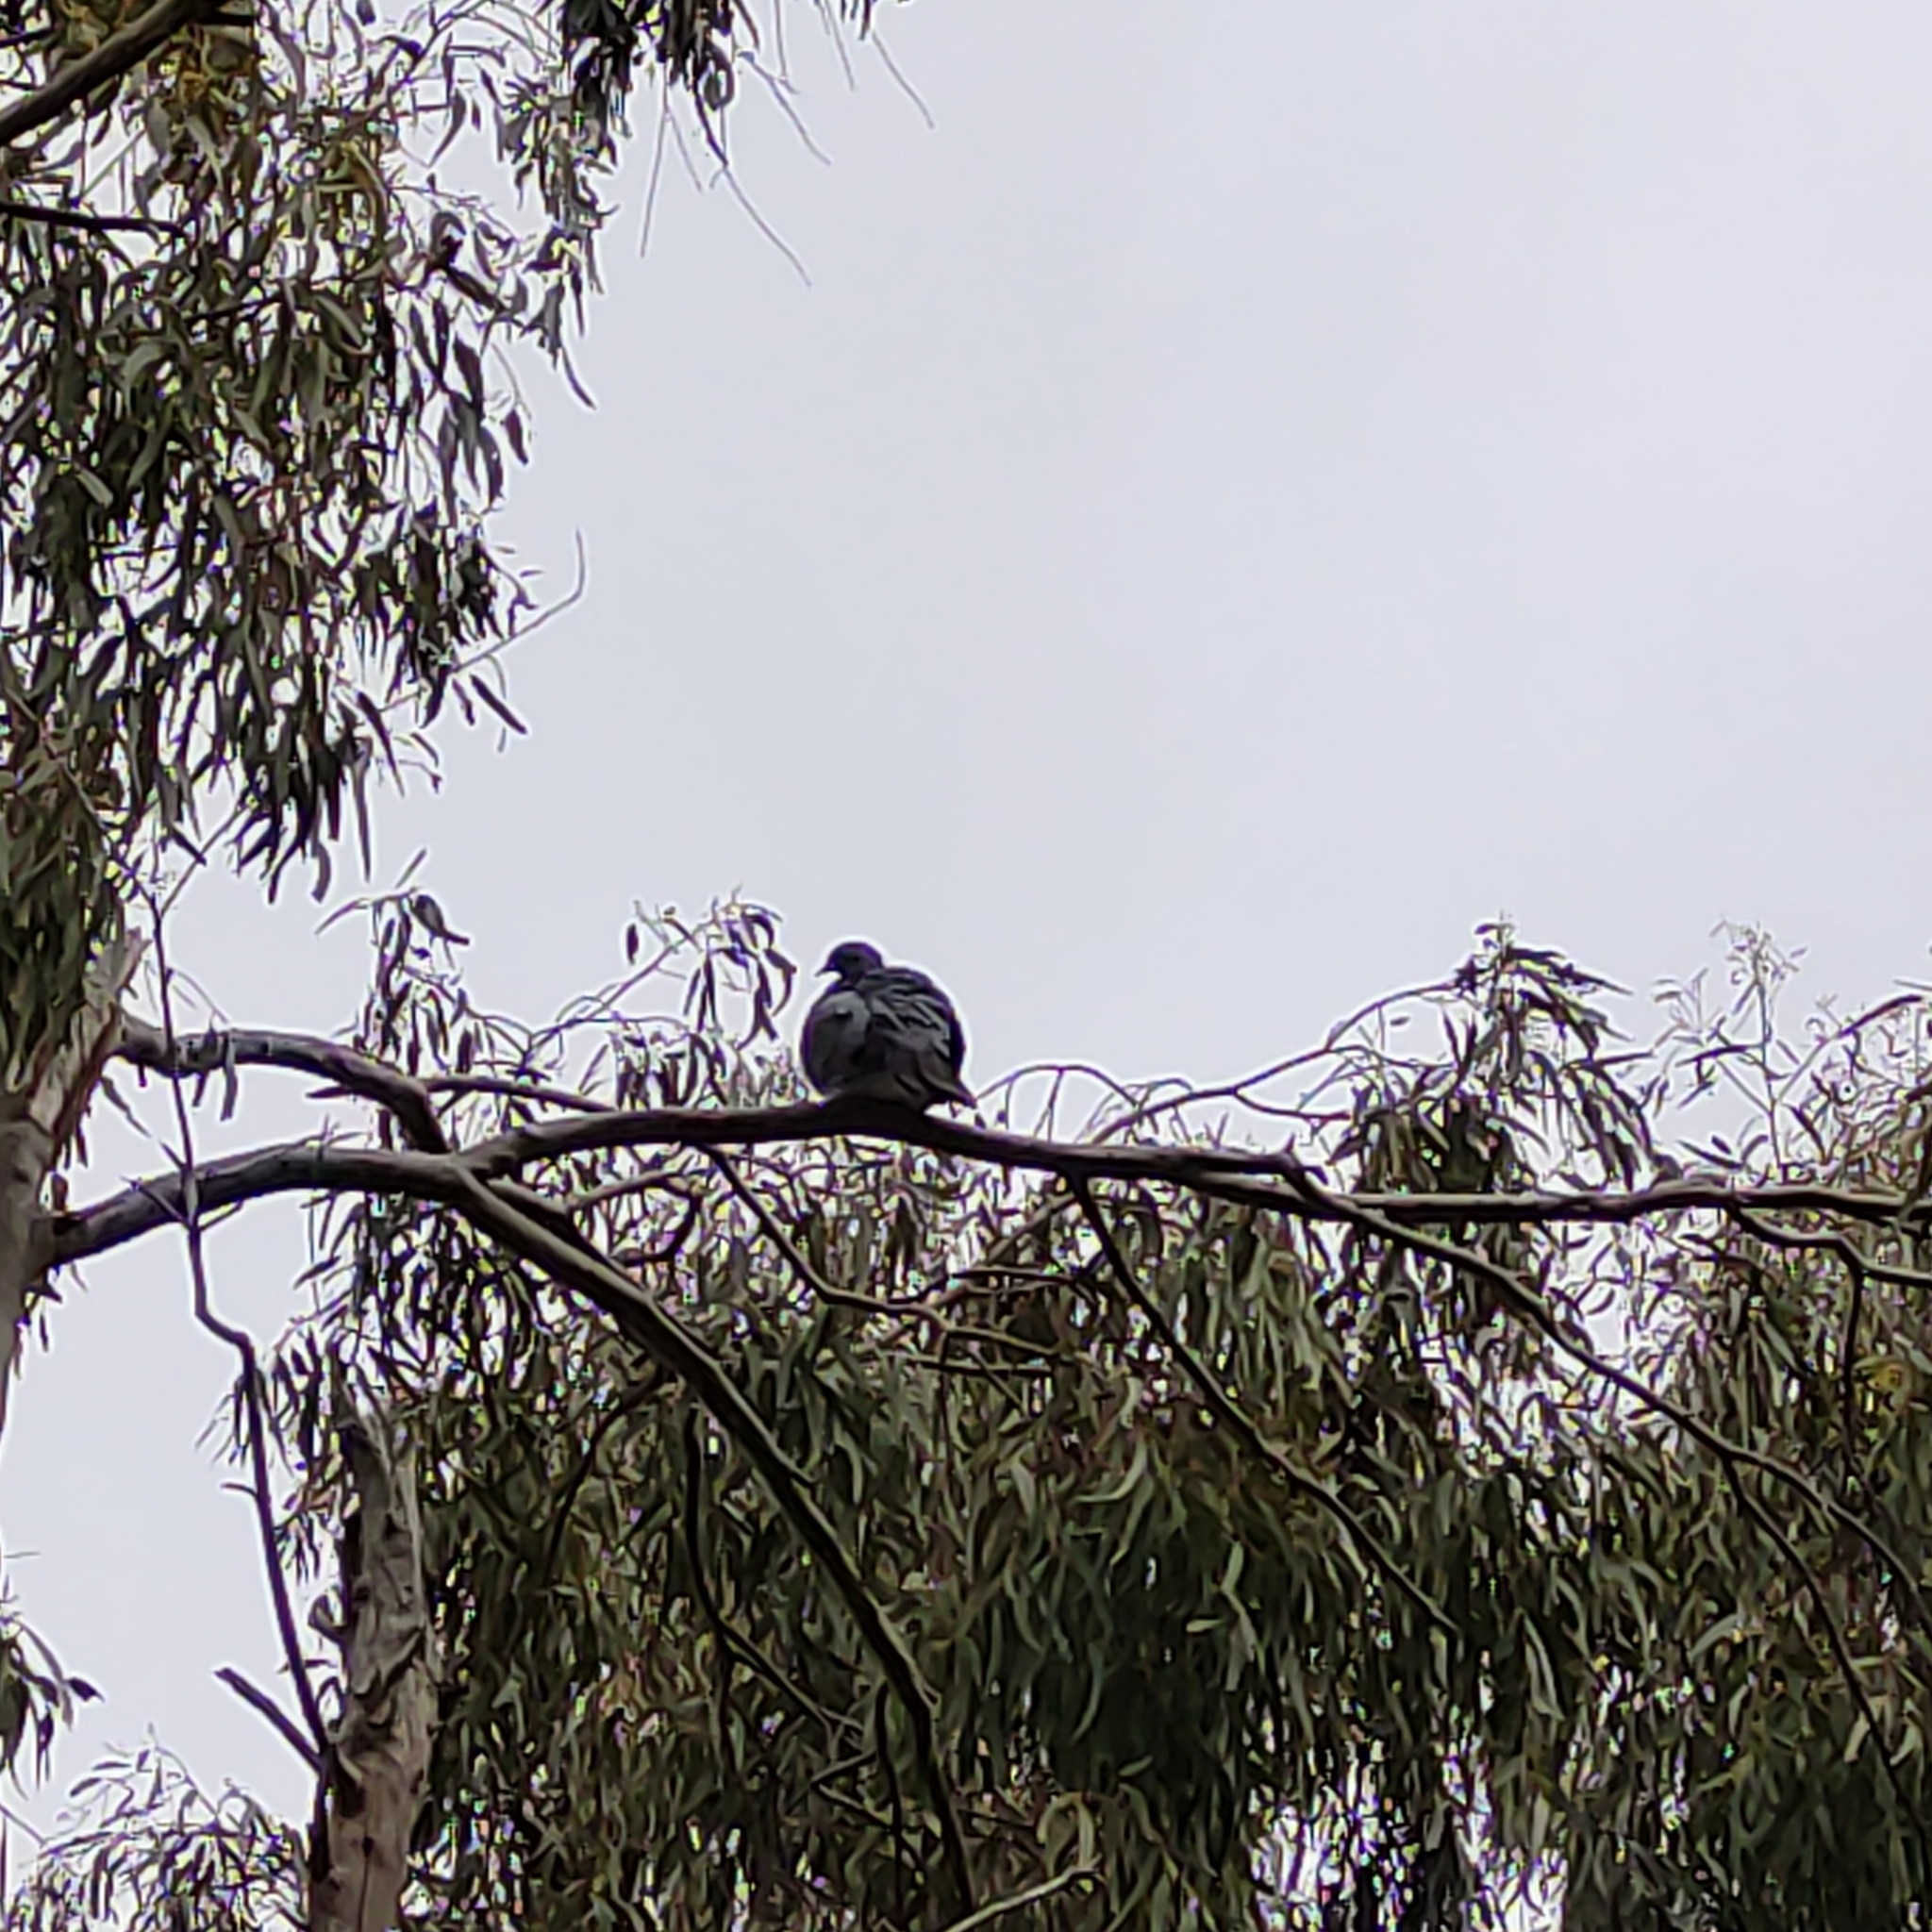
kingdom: Animalia
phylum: Chordata
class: Aves
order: Columbiformes
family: Columbidae
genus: Hemiphaga
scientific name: Hemiphaga novaeseelandiae
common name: New zealand pigeon
